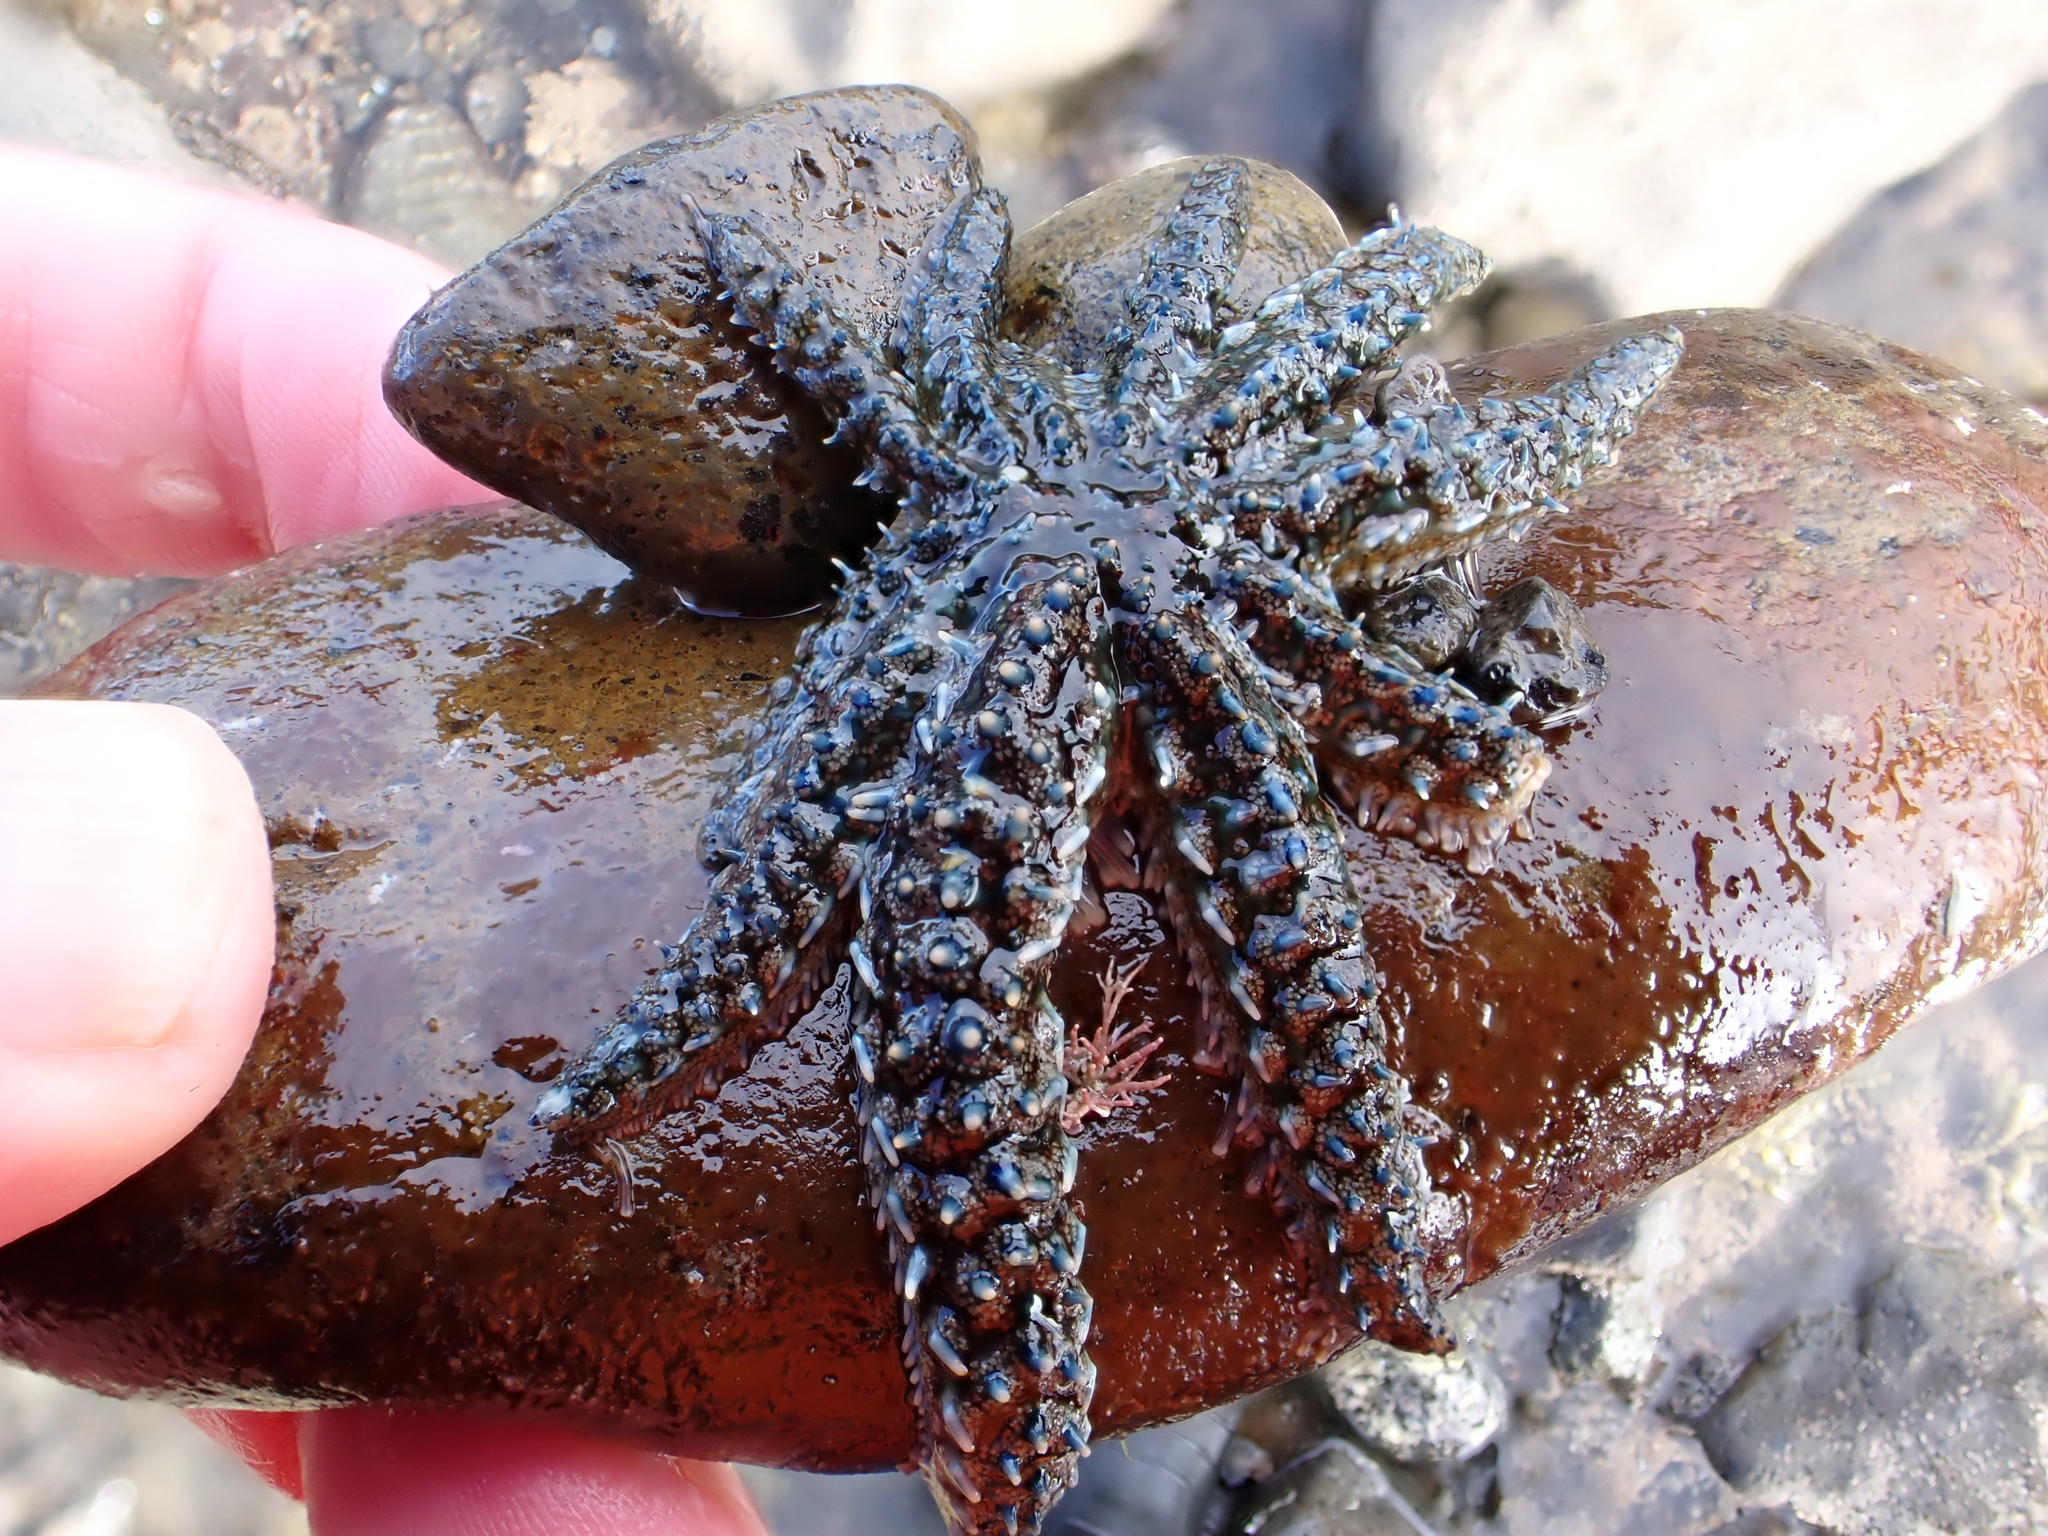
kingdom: Animalia
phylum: Echinodermata
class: Asteroidea
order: Forcipulatida
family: Asteriidae
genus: Coscinasterias
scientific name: Coscinasterias muricata
